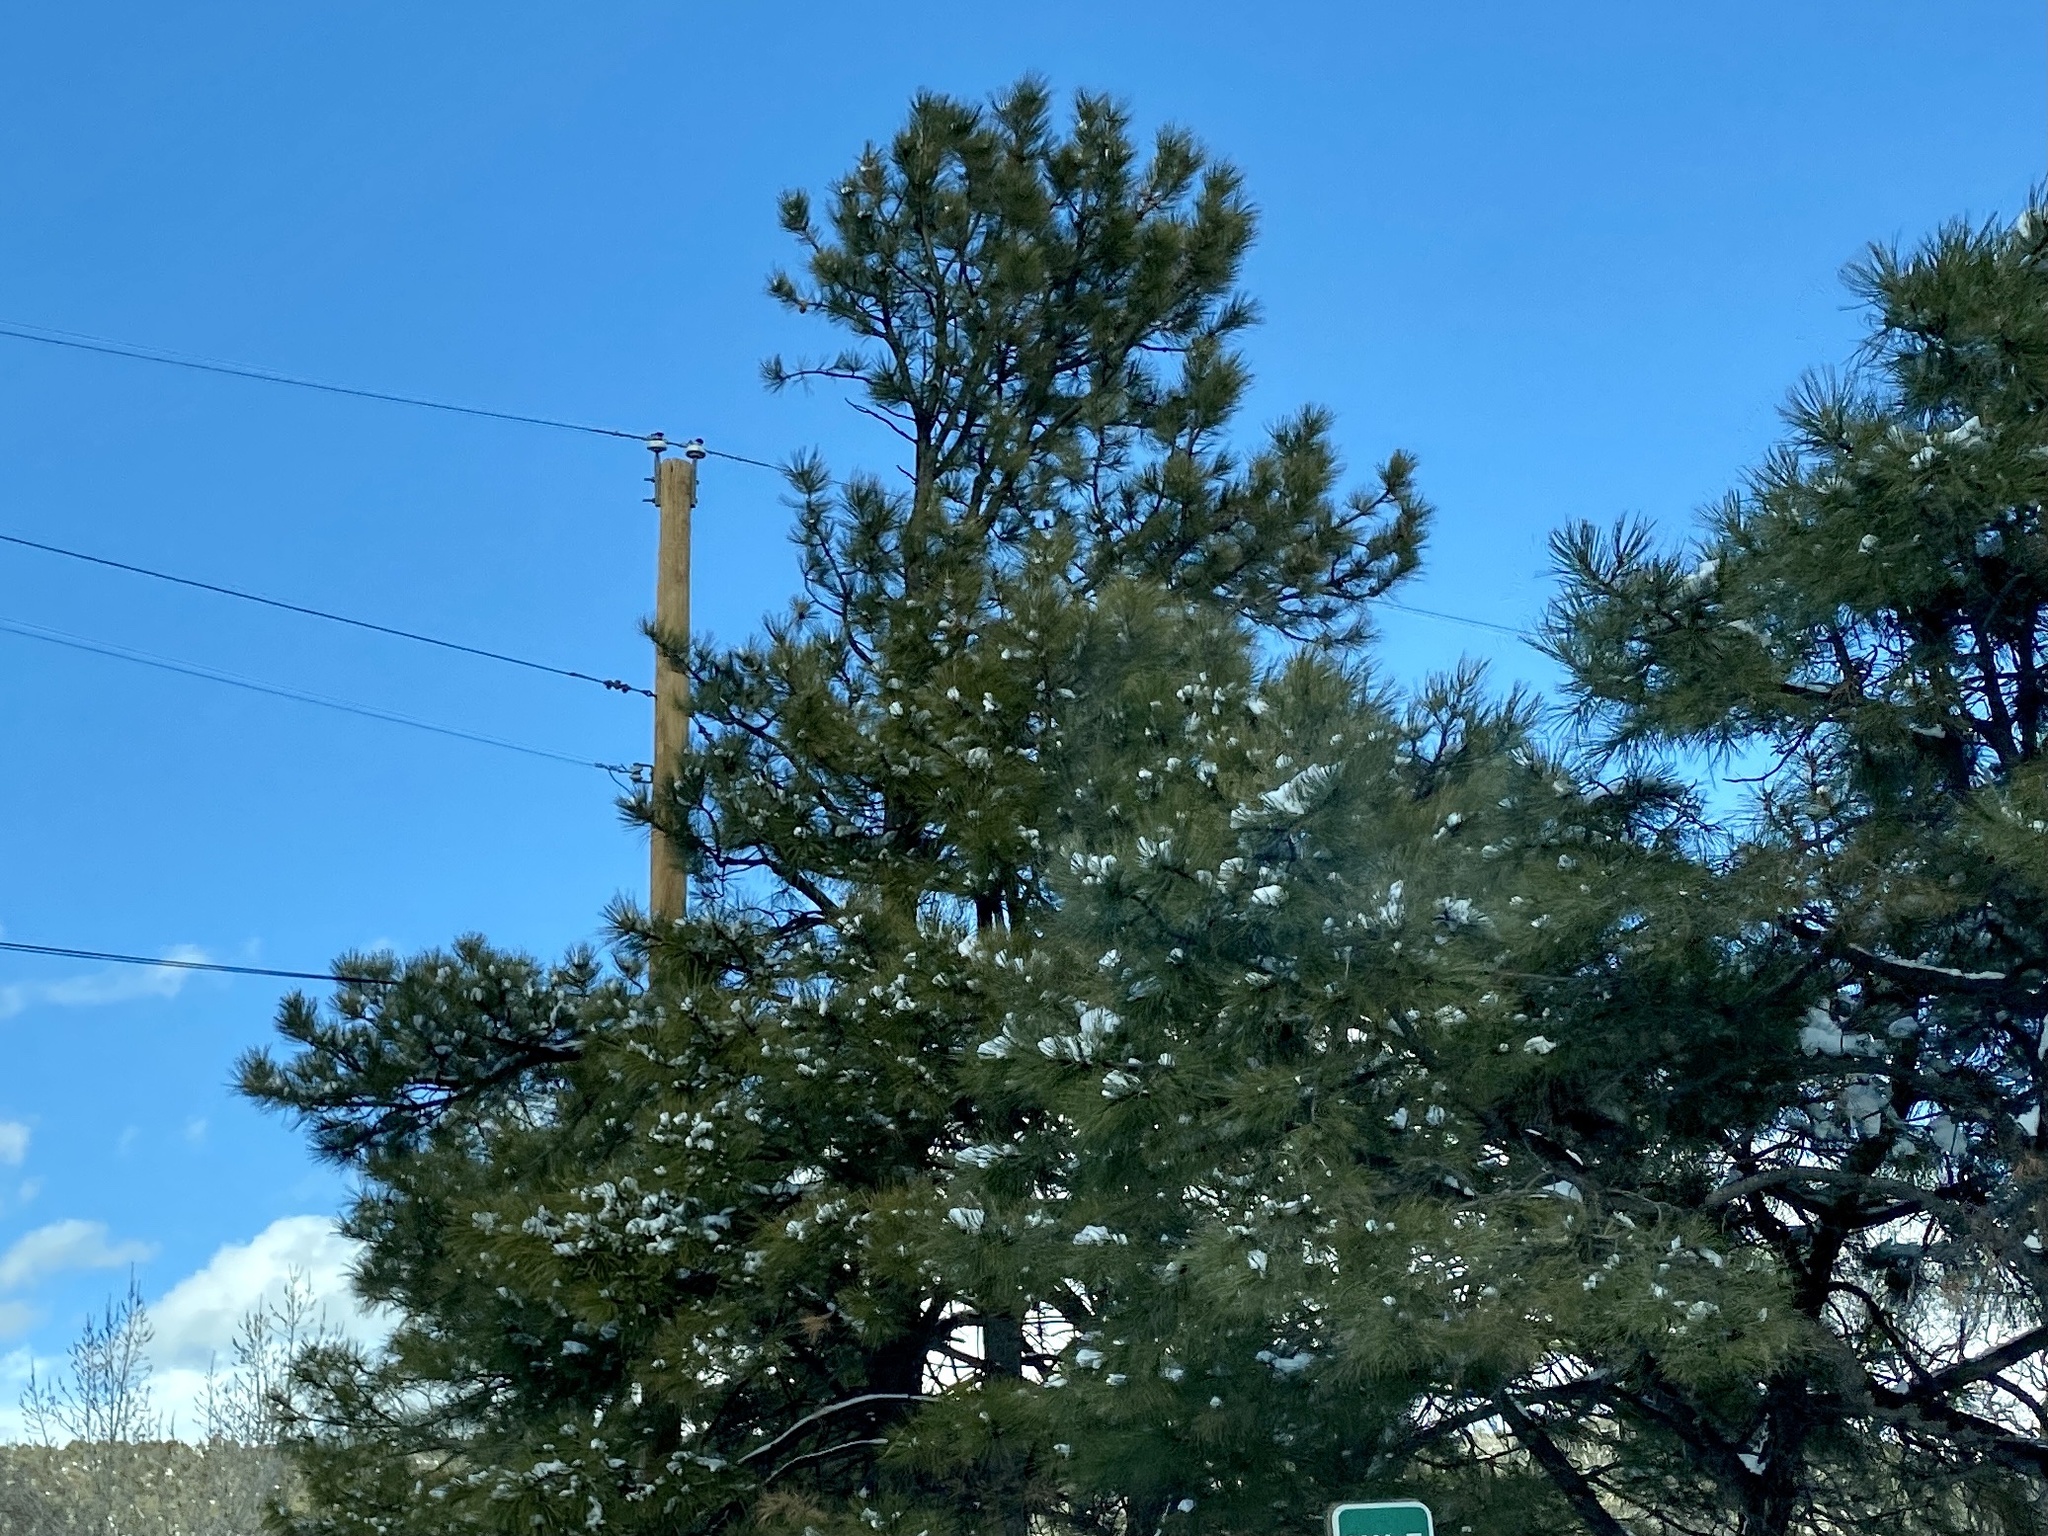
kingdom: Plantae
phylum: Tracheophyta
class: Pinopsida
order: Pinales
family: Pinaceae
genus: Pinus
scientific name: Pinus ponderosa
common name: Western yellow-pine
